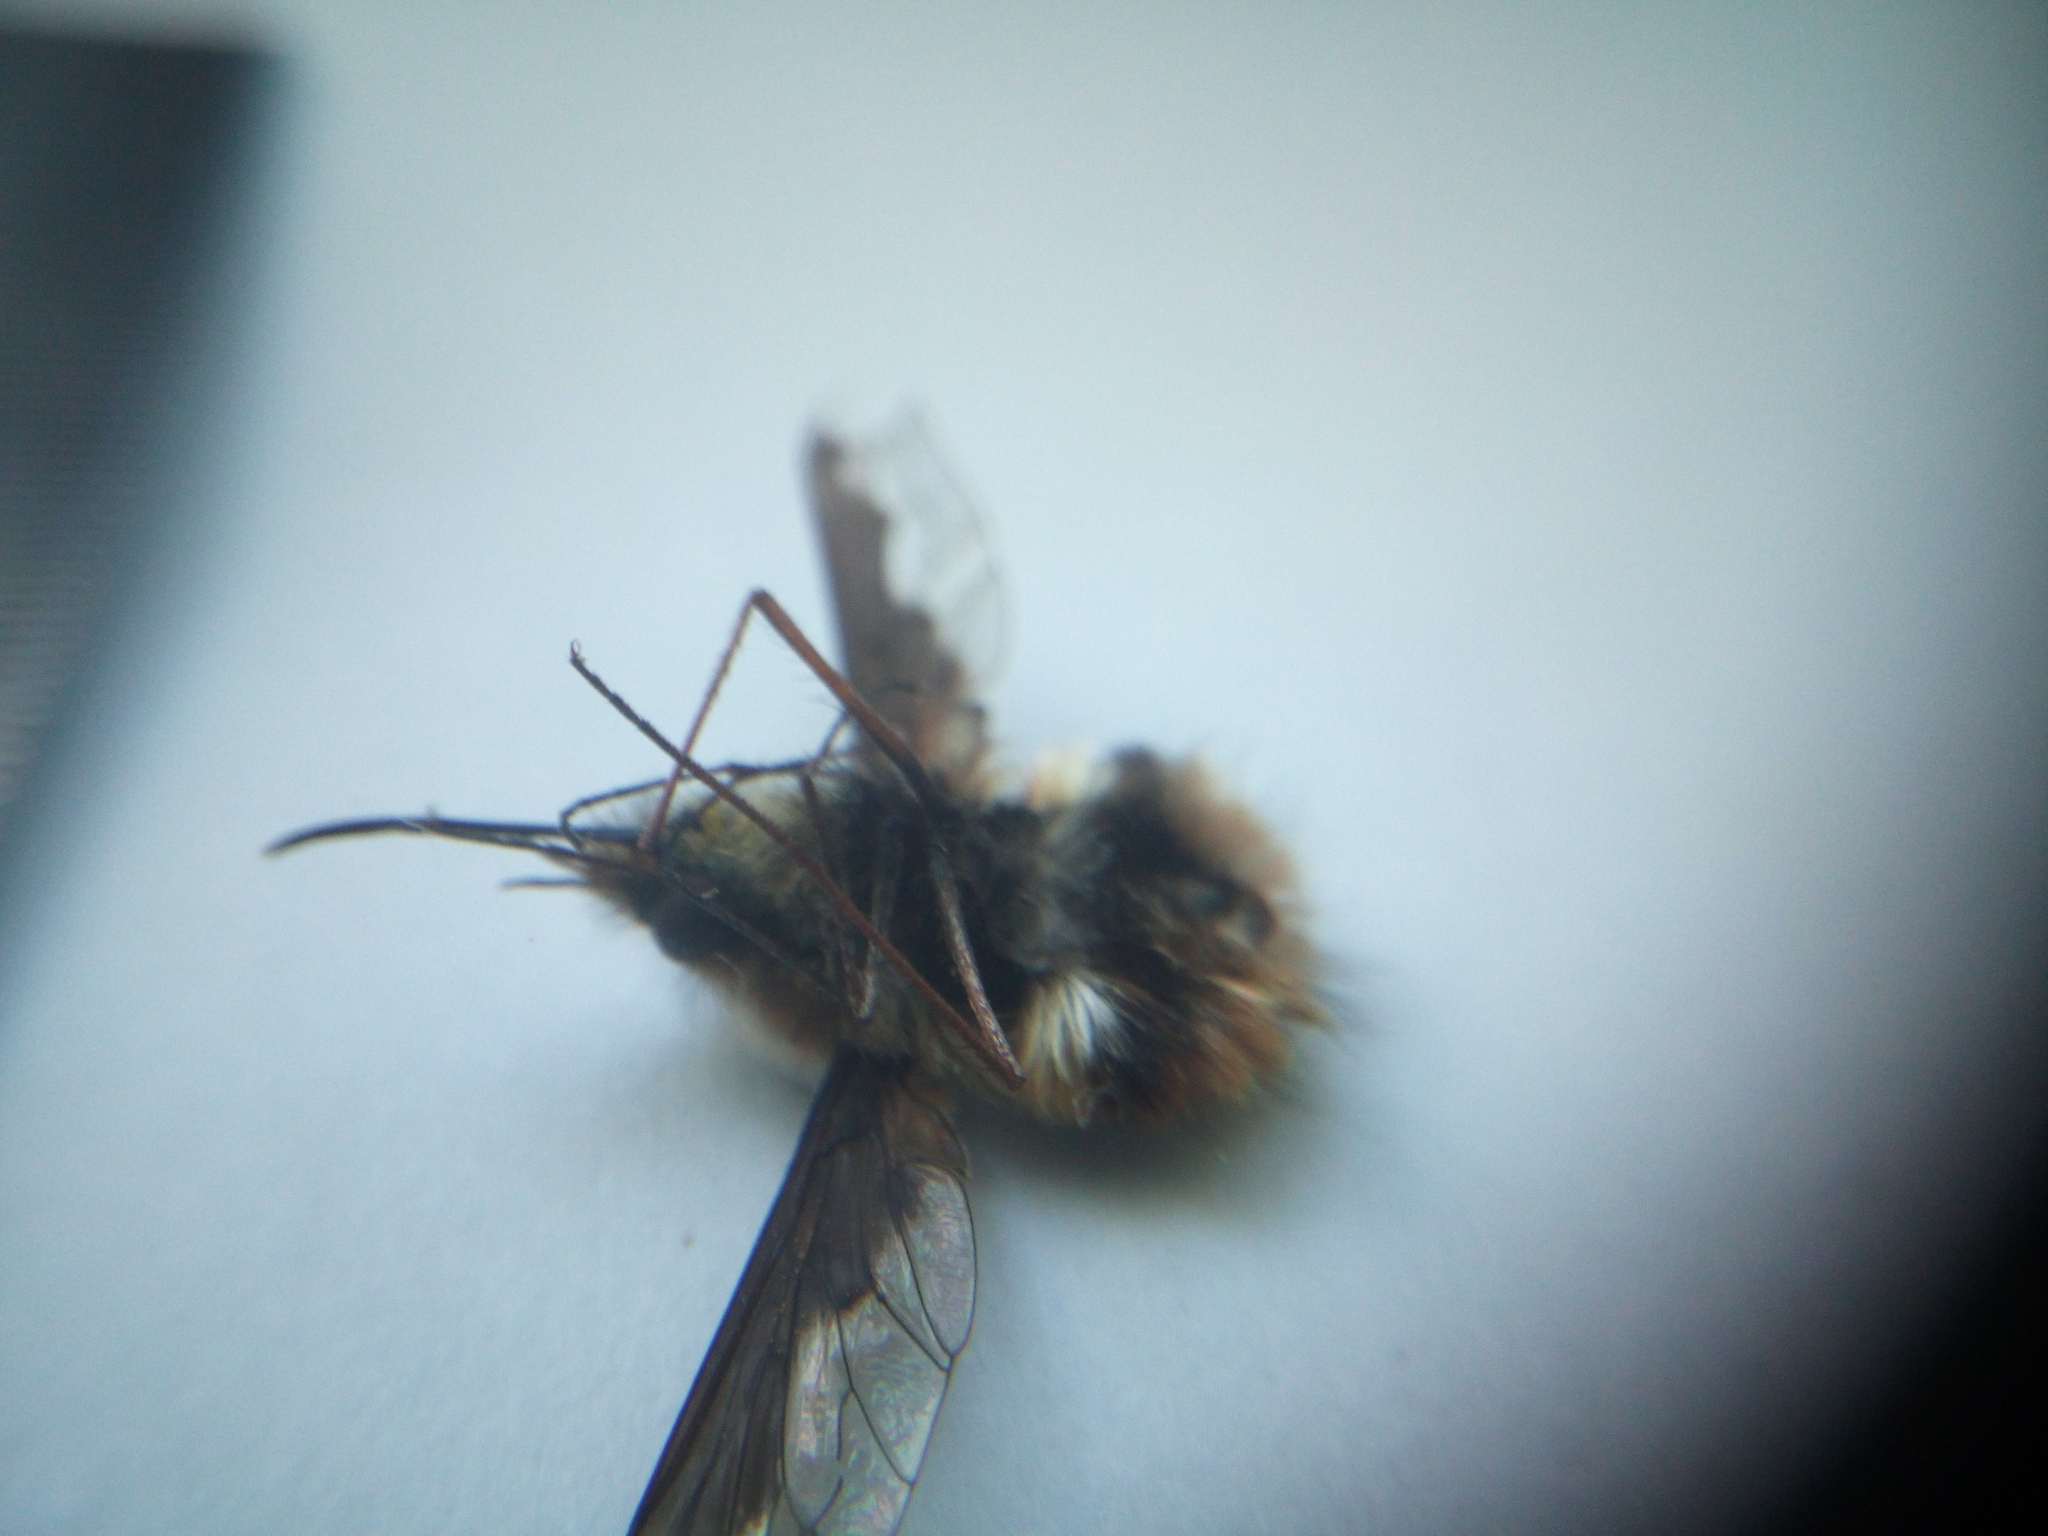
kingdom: Animalia
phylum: Arthropoda
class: Insecta
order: Diptera
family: Bombyliidae
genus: Bombylius
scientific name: Bombylius major
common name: Bee fly
